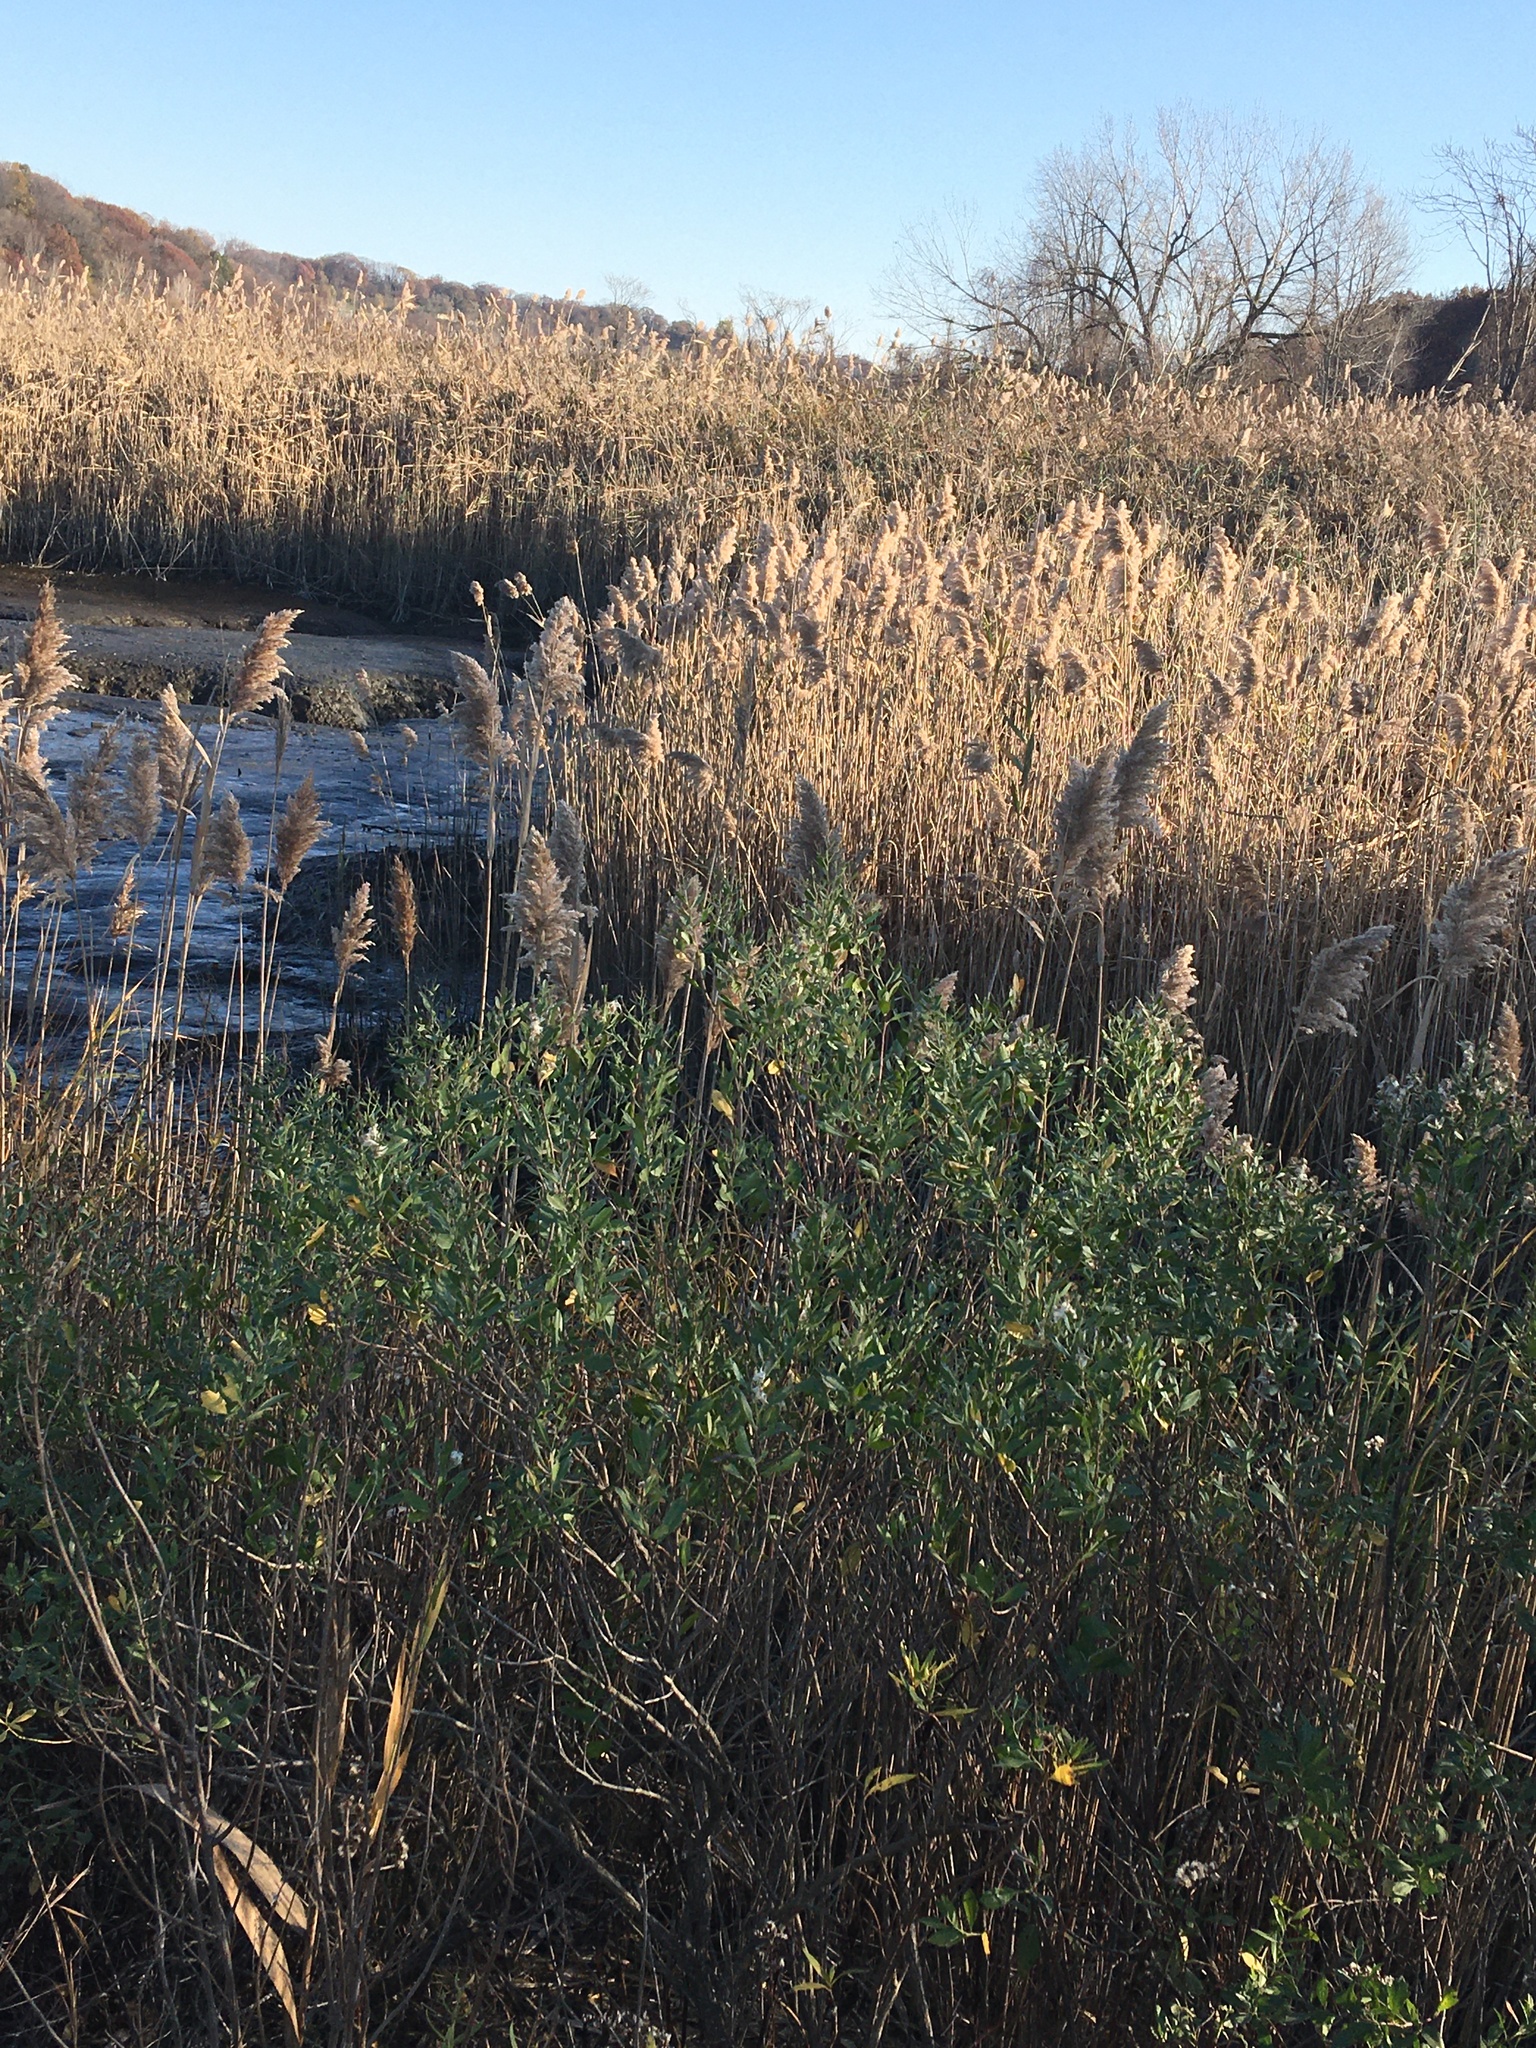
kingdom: Plantae
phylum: Tracheophyta
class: Magnoliopsida
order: Asterales
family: Asteraceae
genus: Baccharis
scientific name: Baccharis halimifolia
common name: Eastern baccharis
